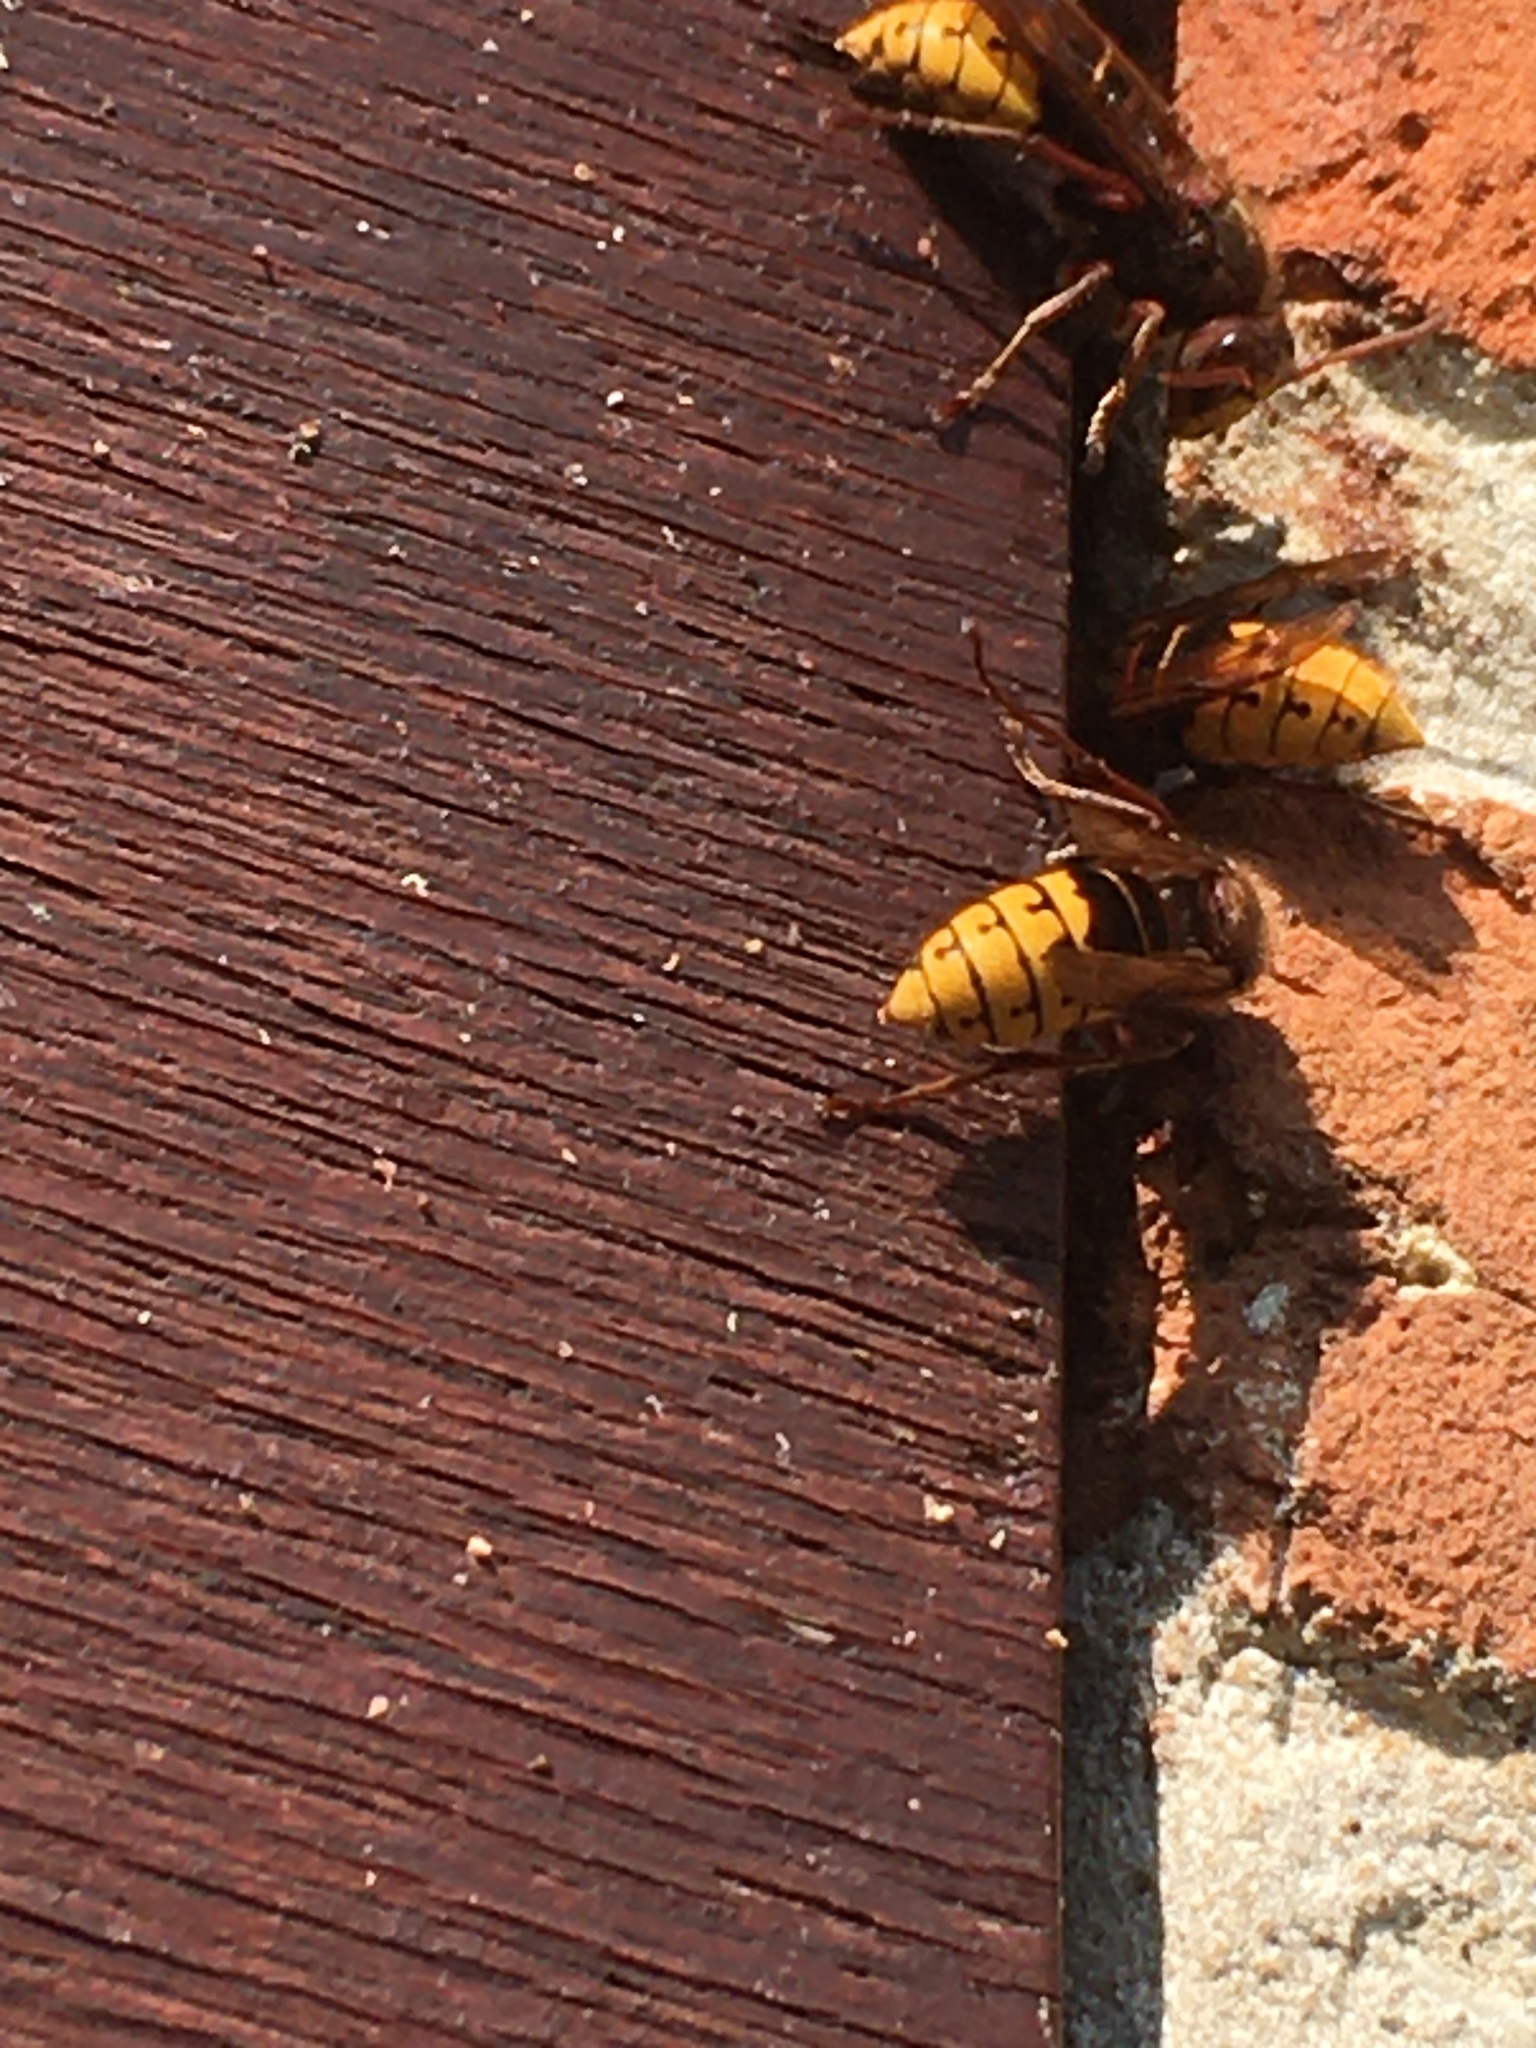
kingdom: Animalia
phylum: Arthropoda
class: Insecta
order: Hymenoptera
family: Vespidae
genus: Vespa
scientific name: Vespa crabro
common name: Hornet
